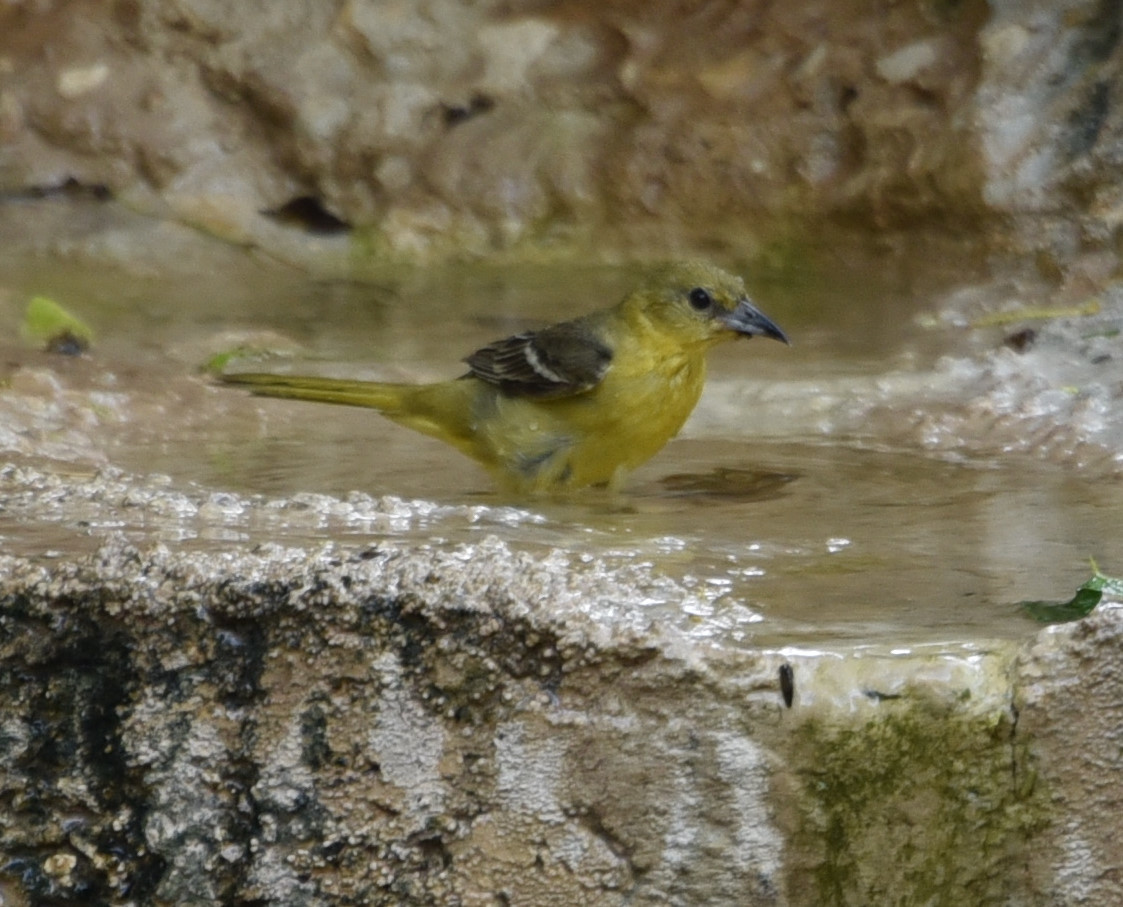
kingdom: Animalia
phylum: Chordata
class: Aves
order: Passeriformes
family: Icteridae
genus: Icterus
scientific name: Icterus spurius
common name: Orchard oriole
